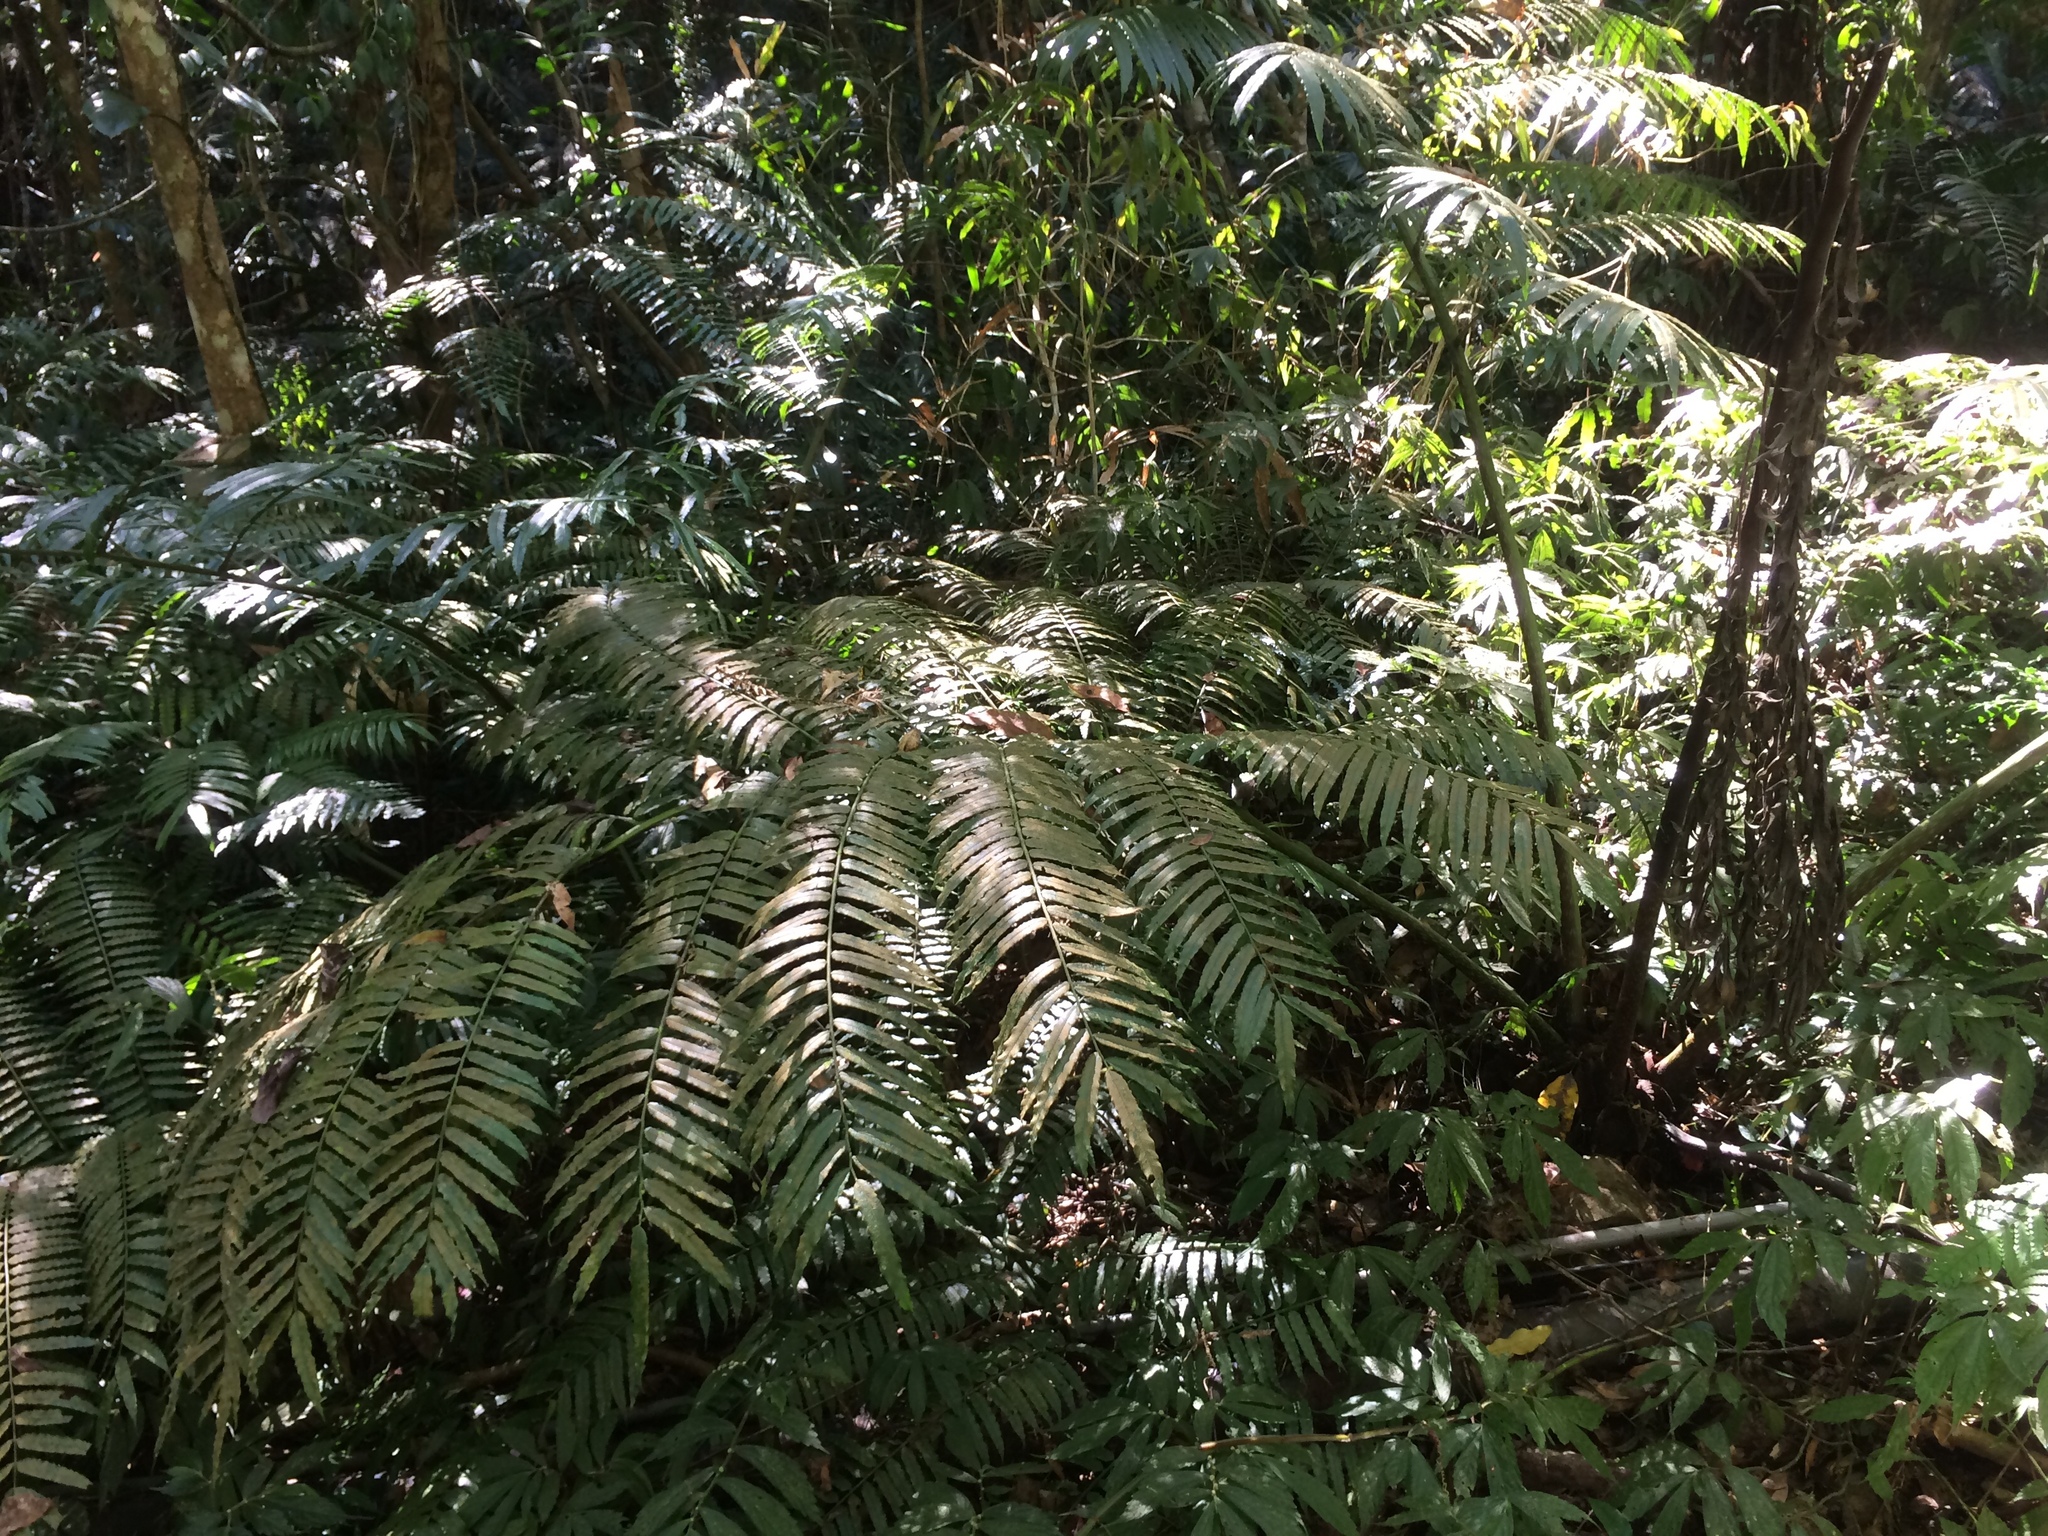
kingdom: Plantae
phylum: Tracheophyta
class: Polypodiopsida
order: Marattiales
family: Marattiaceae
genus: Angiopteris
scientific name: Angiopteris lygodiifolia
